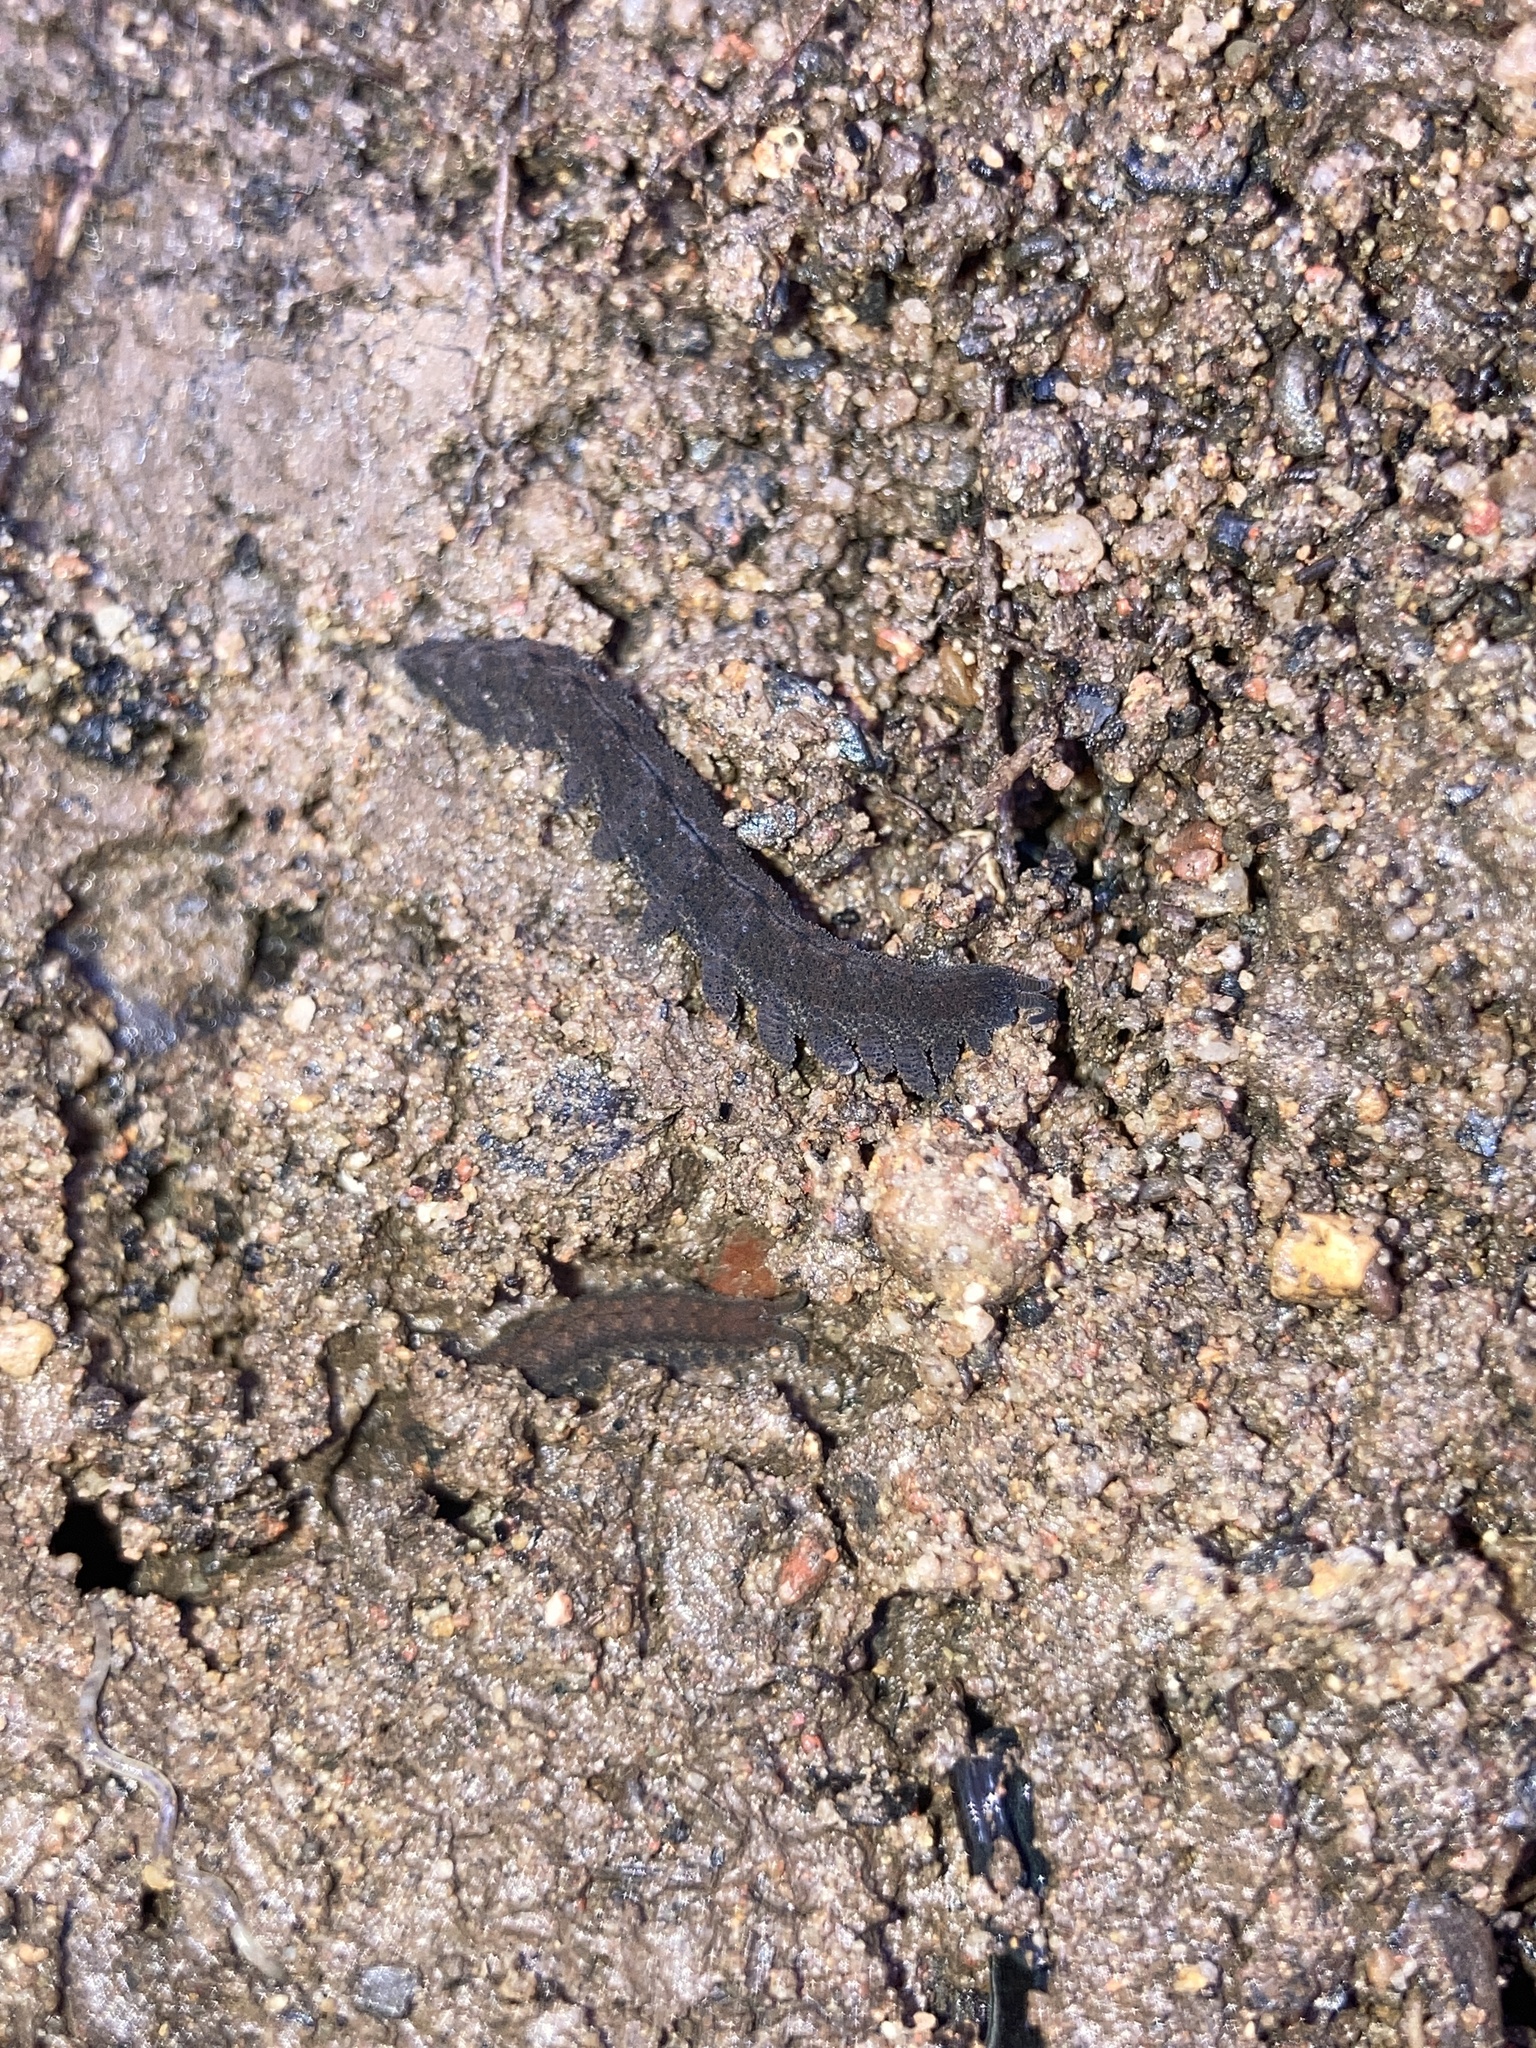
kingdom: Animalia
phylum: Onychophora
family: Peripatopsidae
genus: Anoplokaros
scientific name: Anoplokaros keerensis
